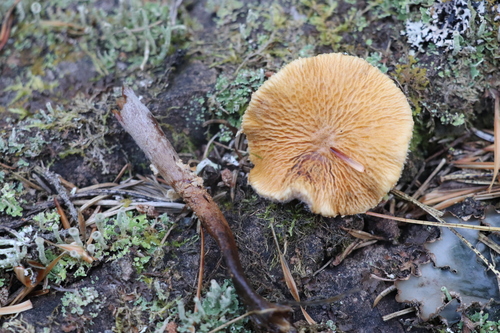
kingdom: Fungi
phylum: Basidiomycota
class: Agaricomycetes
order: Agaricales
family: Tricholomataceae
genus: Cystoderma
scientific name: Cystoderma amianthinum
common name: Earthy powdercap
